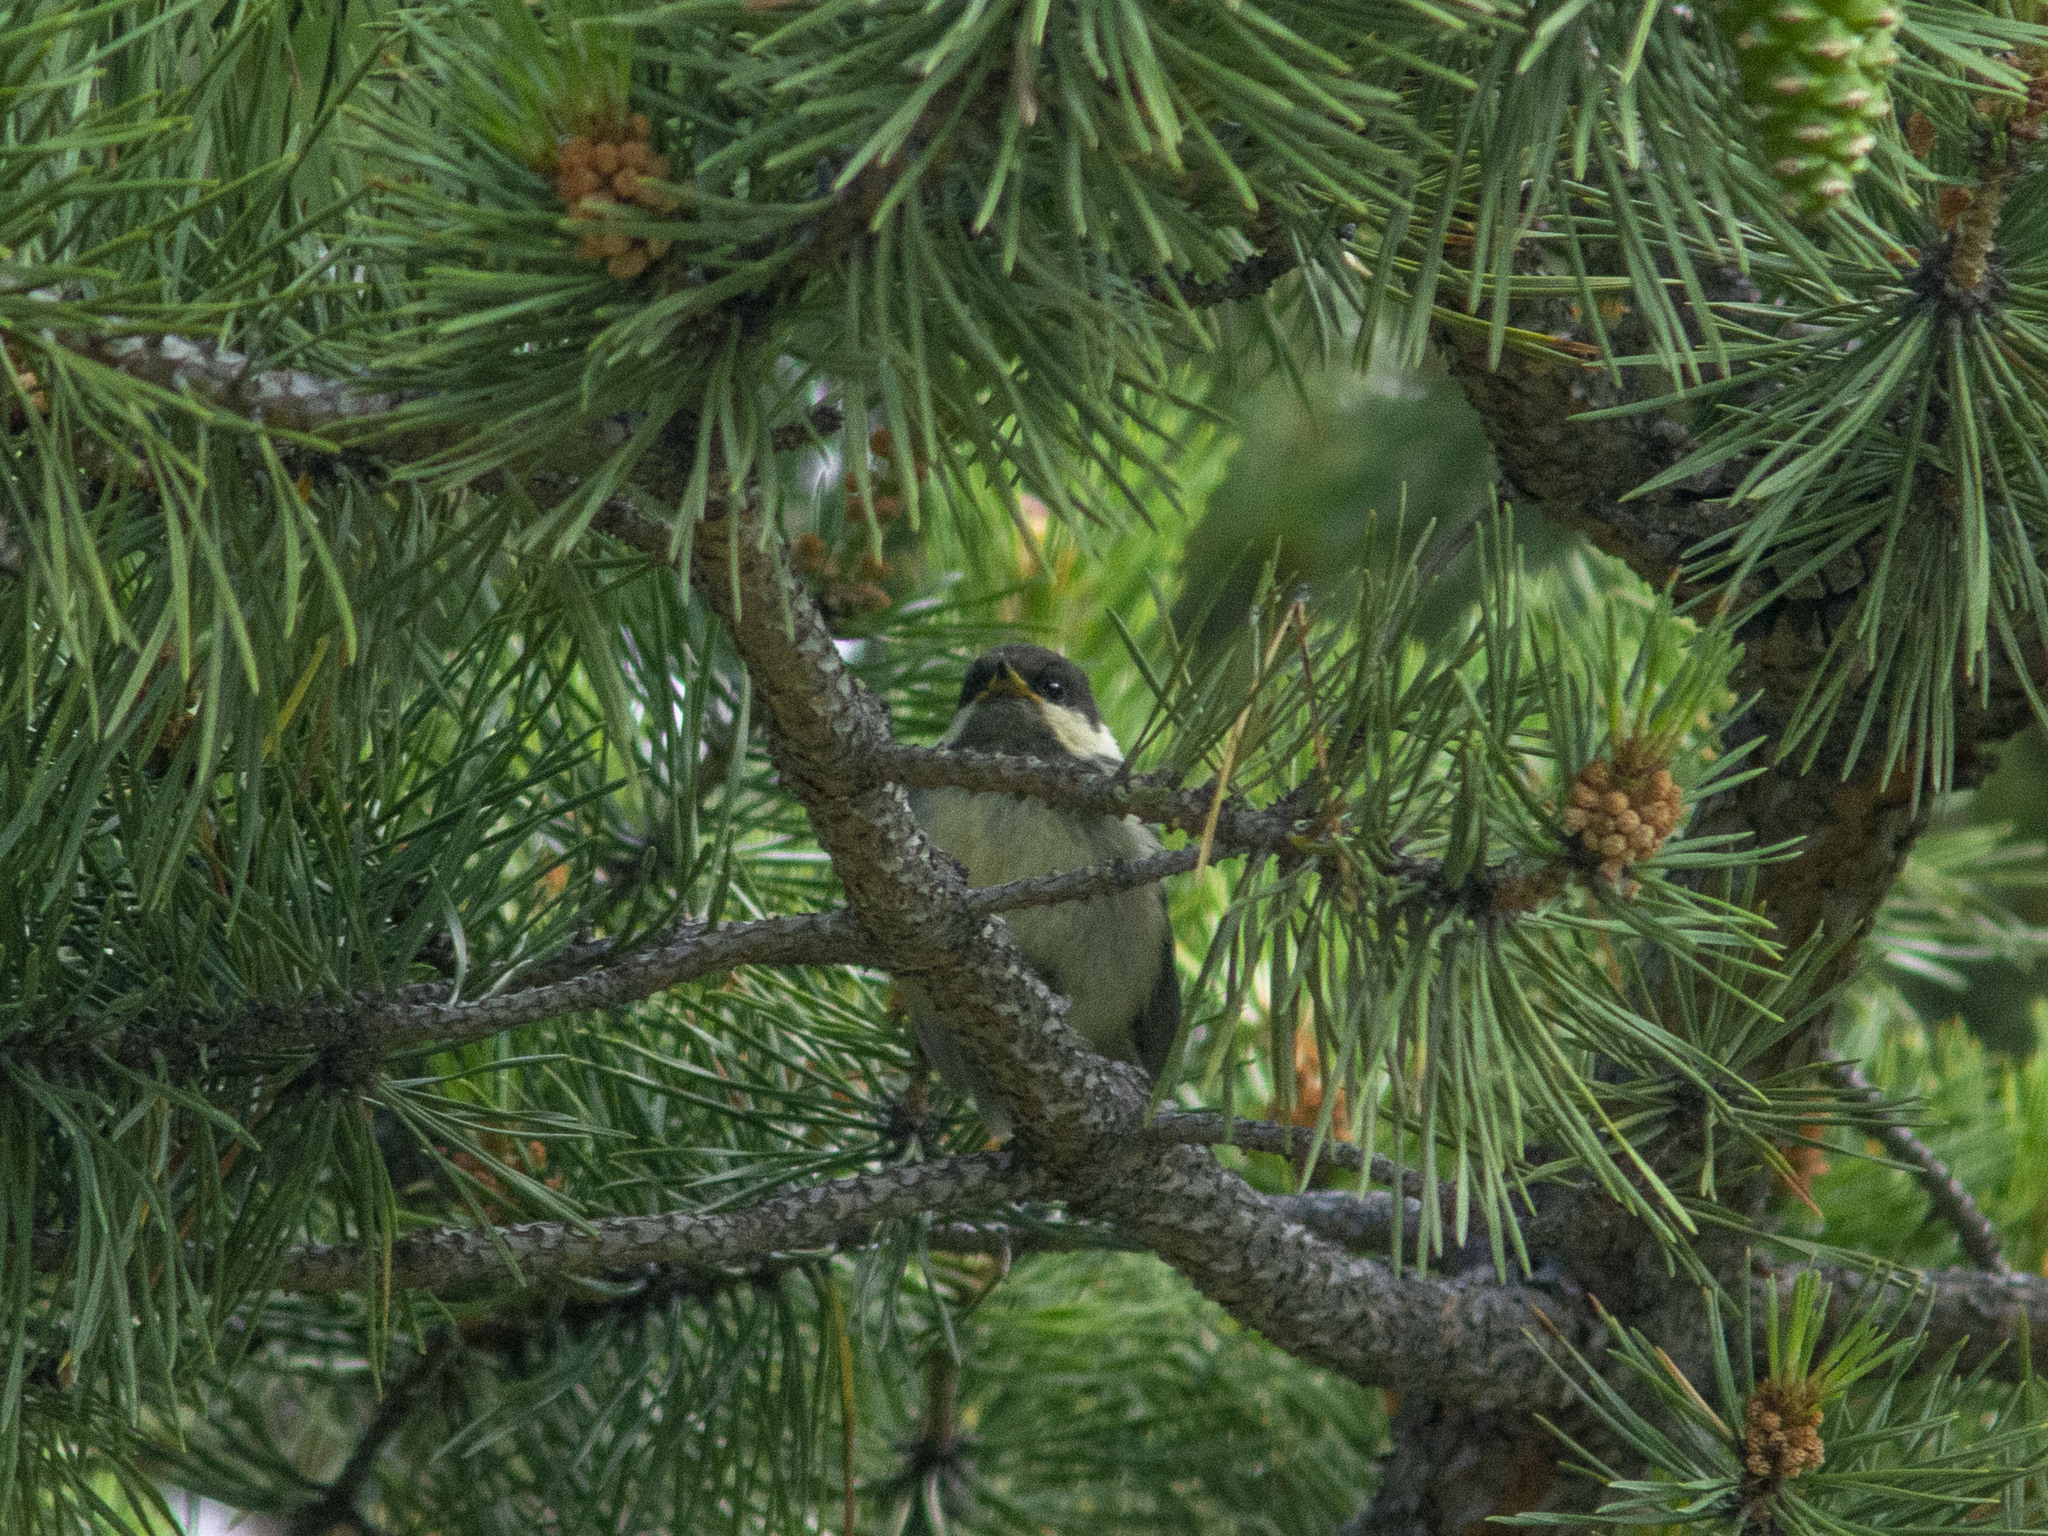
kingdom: Animalia
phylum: Chordata
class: Aves
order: Passeriformes
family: Paridae
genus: Periparus
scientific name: Periparus ater
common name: Coal tit
